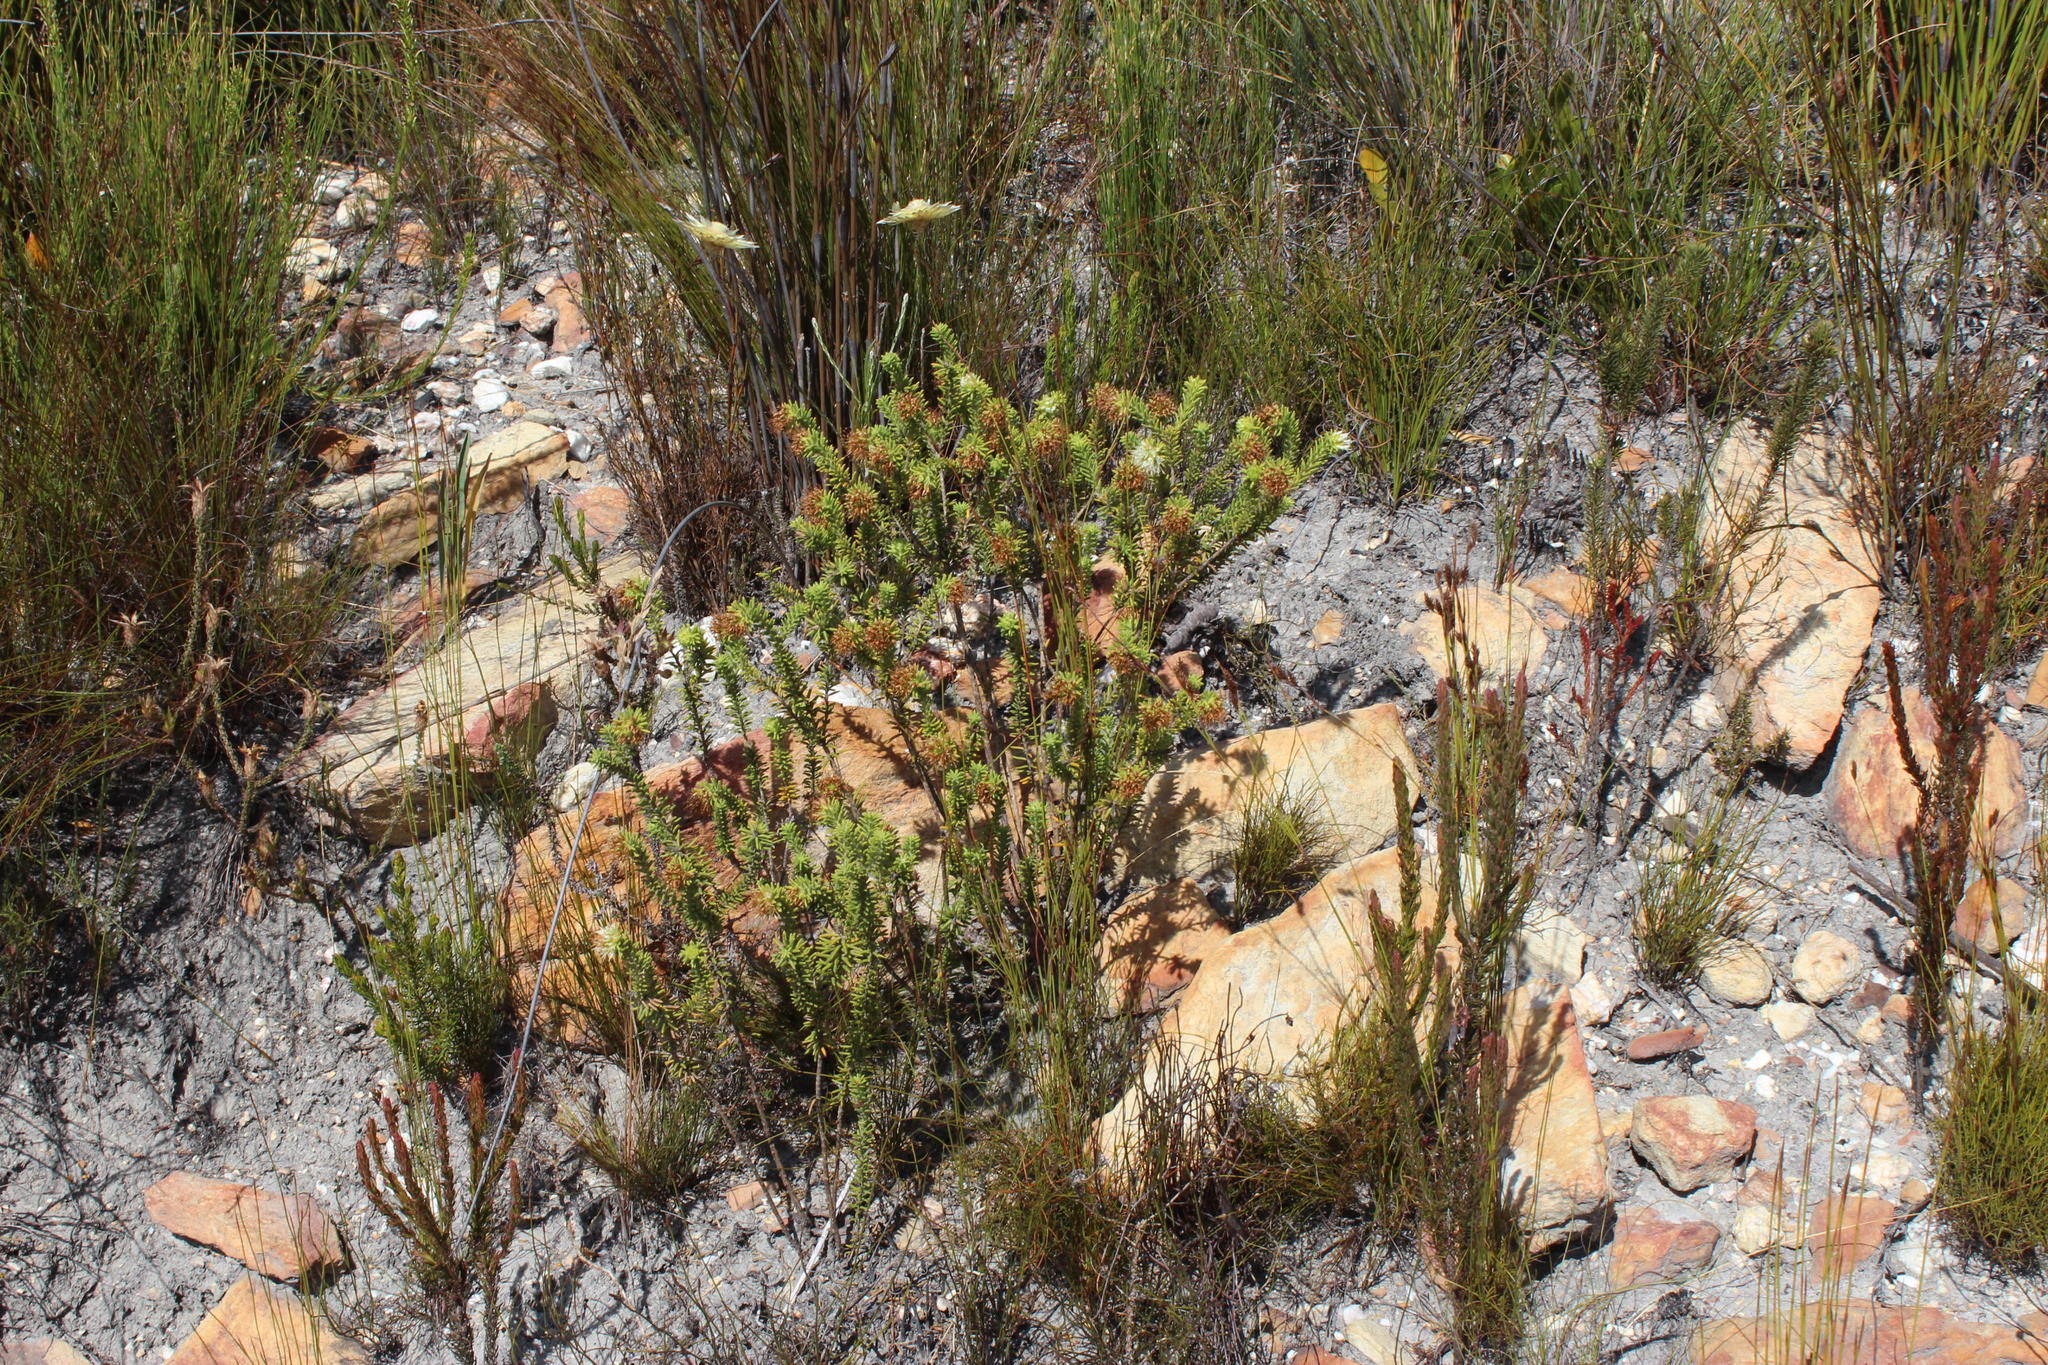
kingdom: Plantae
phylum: Tracheophyta
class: Magnoliopsida
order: Lamiales
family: Stilbaceae
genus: Campylostachys
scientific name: Campylostachys cernua
